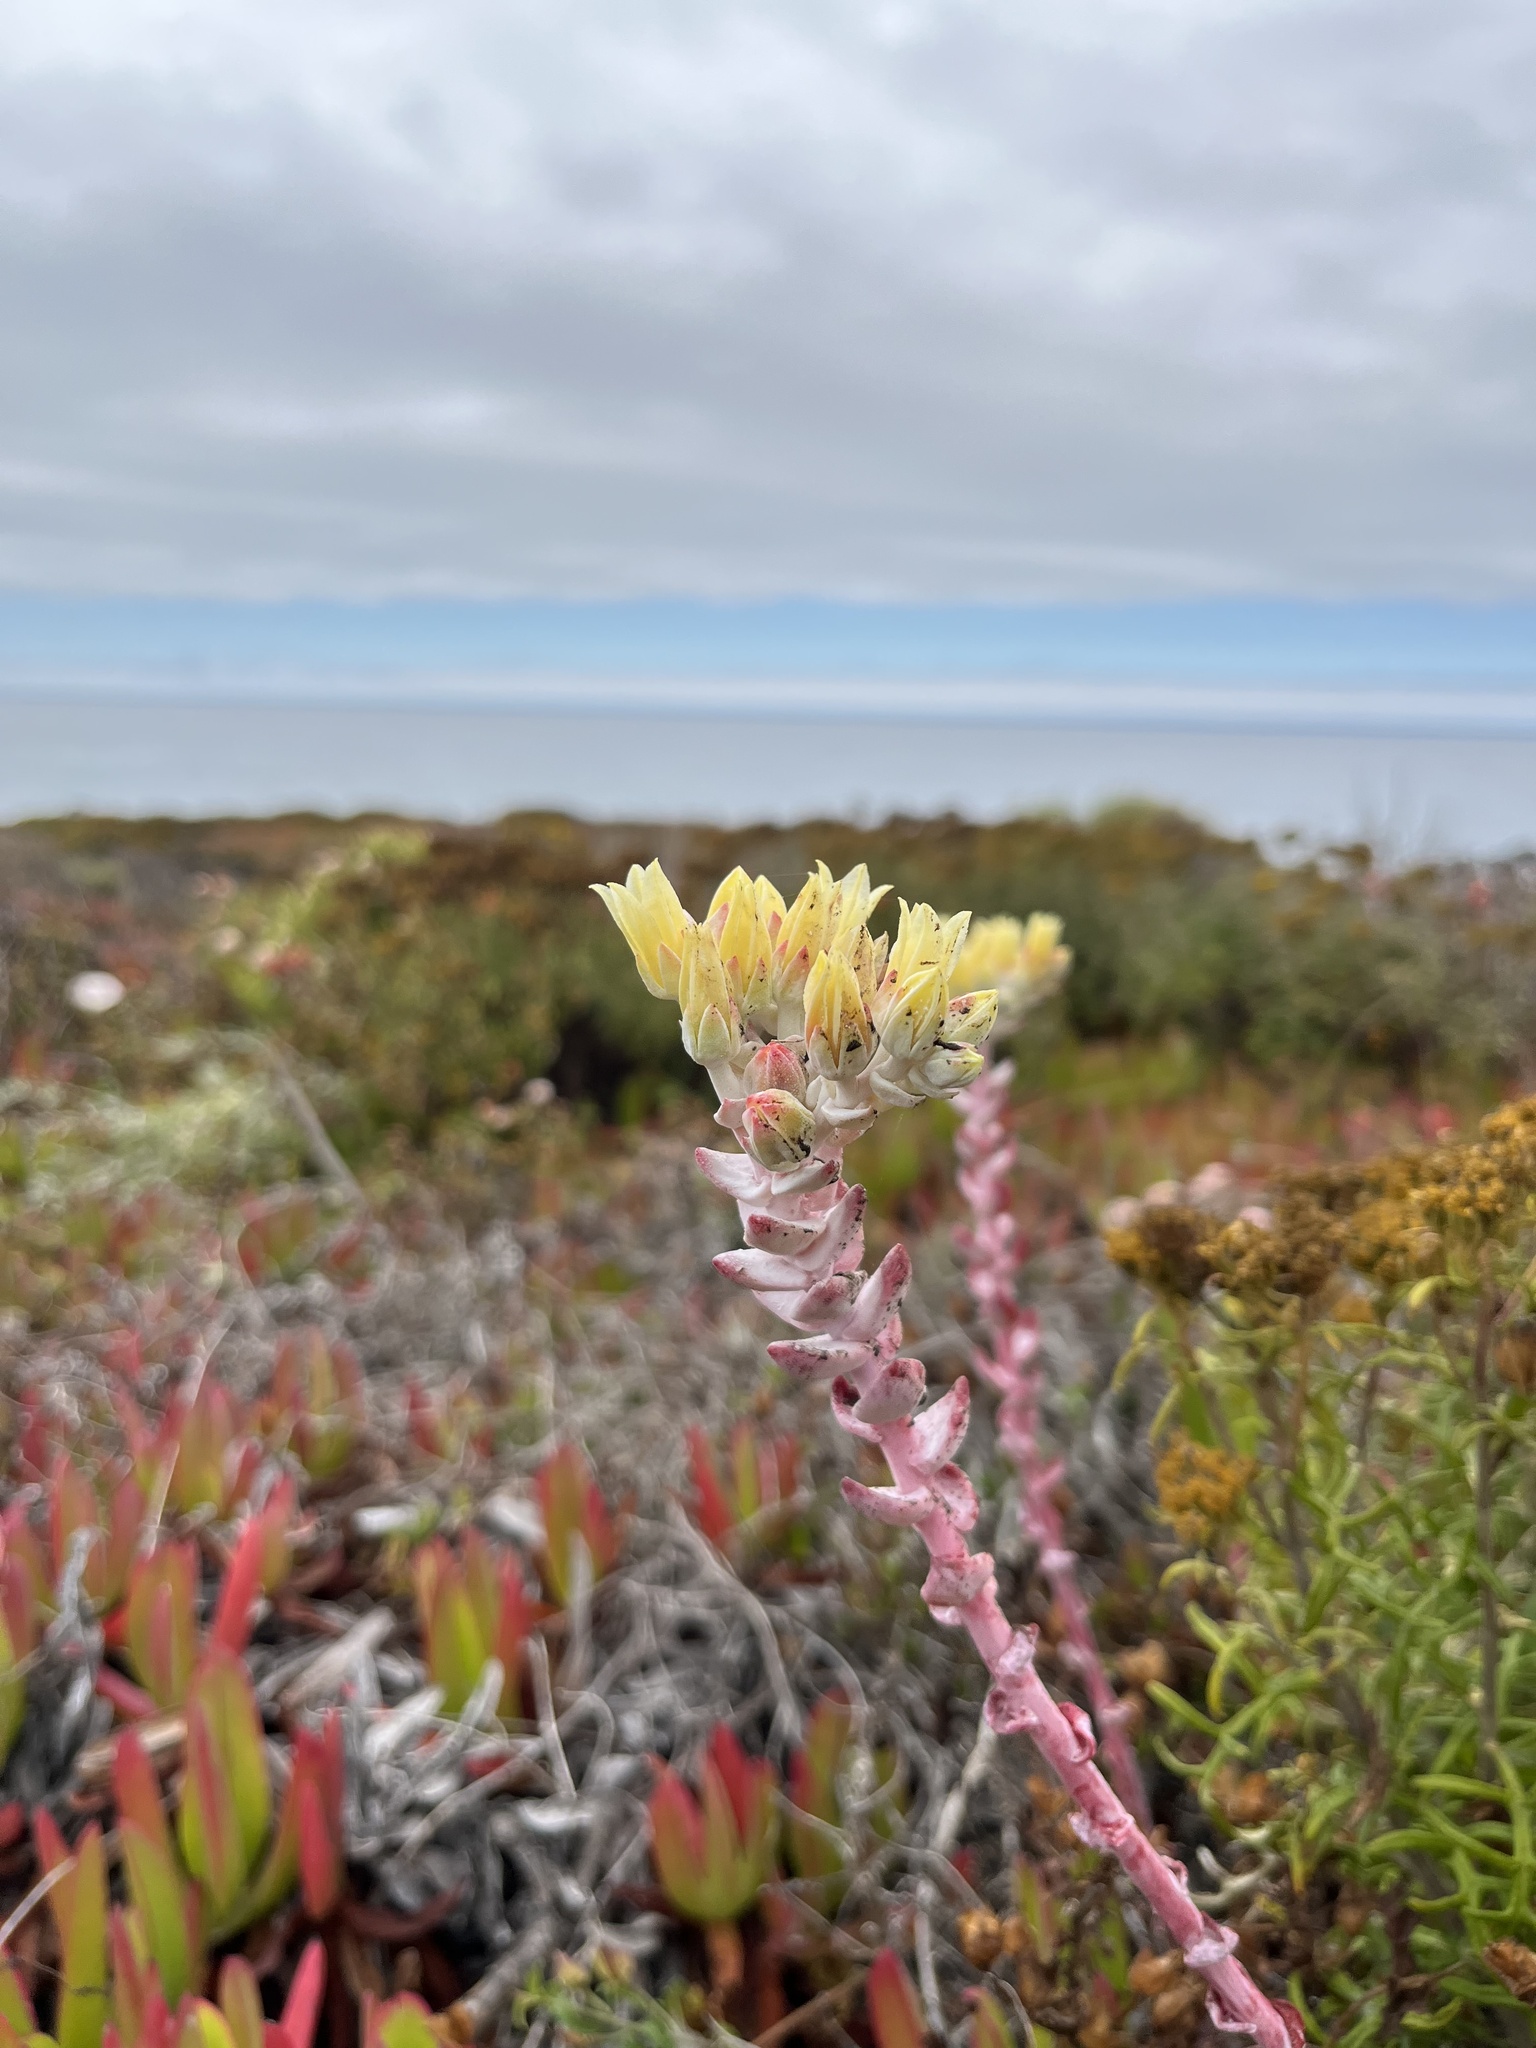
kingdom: Plantae
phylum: Tracheophyta
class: Magnoliopsida
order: Saxifragales
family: Crassulaceae
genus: Dudleya
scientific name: Dudleya farinosa
